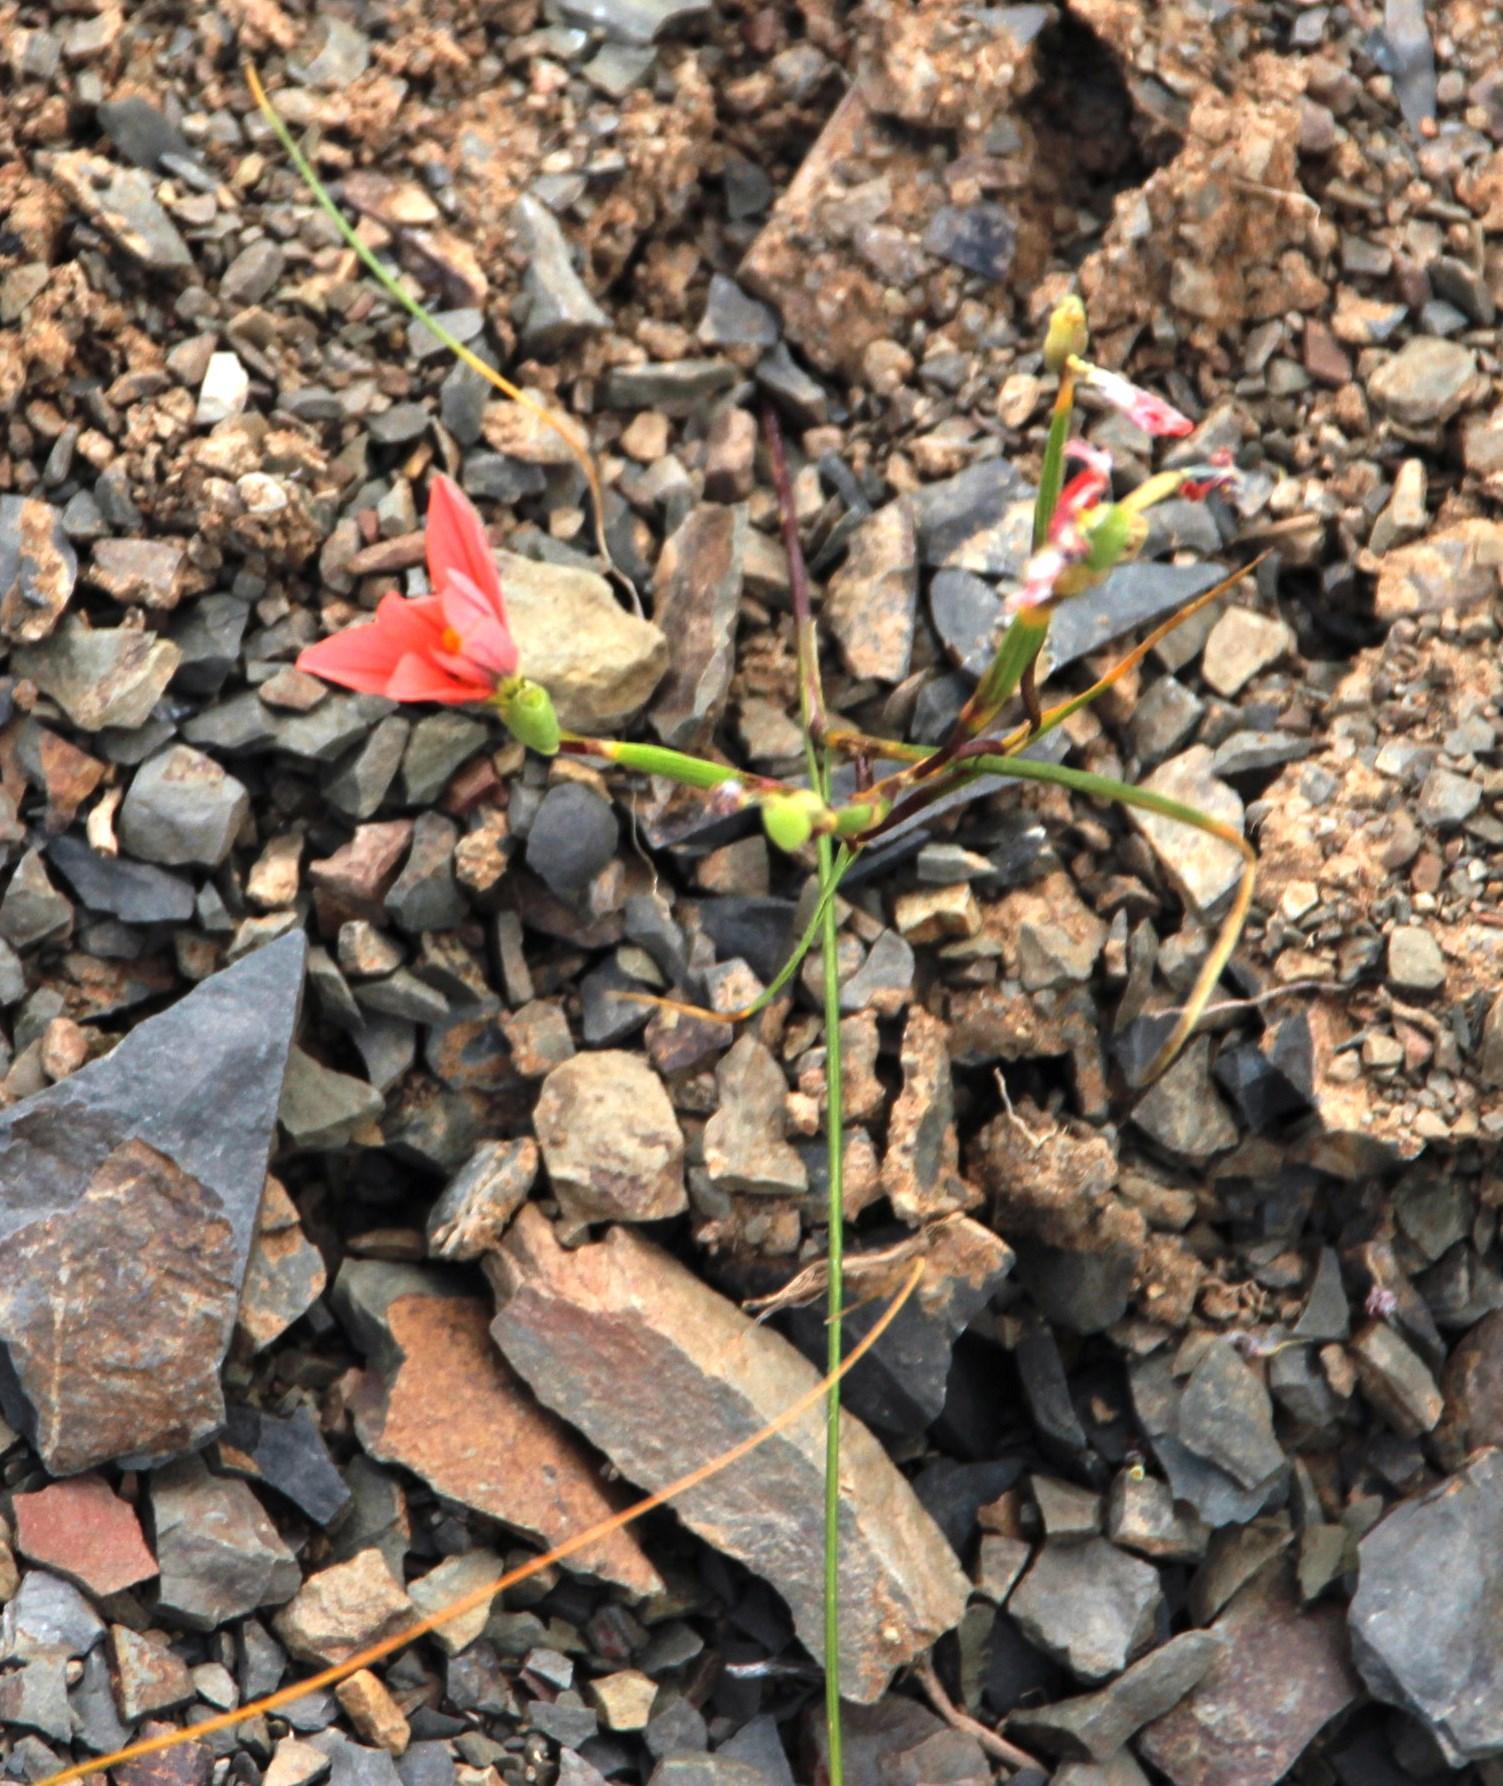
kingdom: Plantae
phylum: Tracheophyta
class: Liliopsida
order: Asparagales
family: Iridaceae
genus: Moraea
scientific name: Moraea fenestrata
